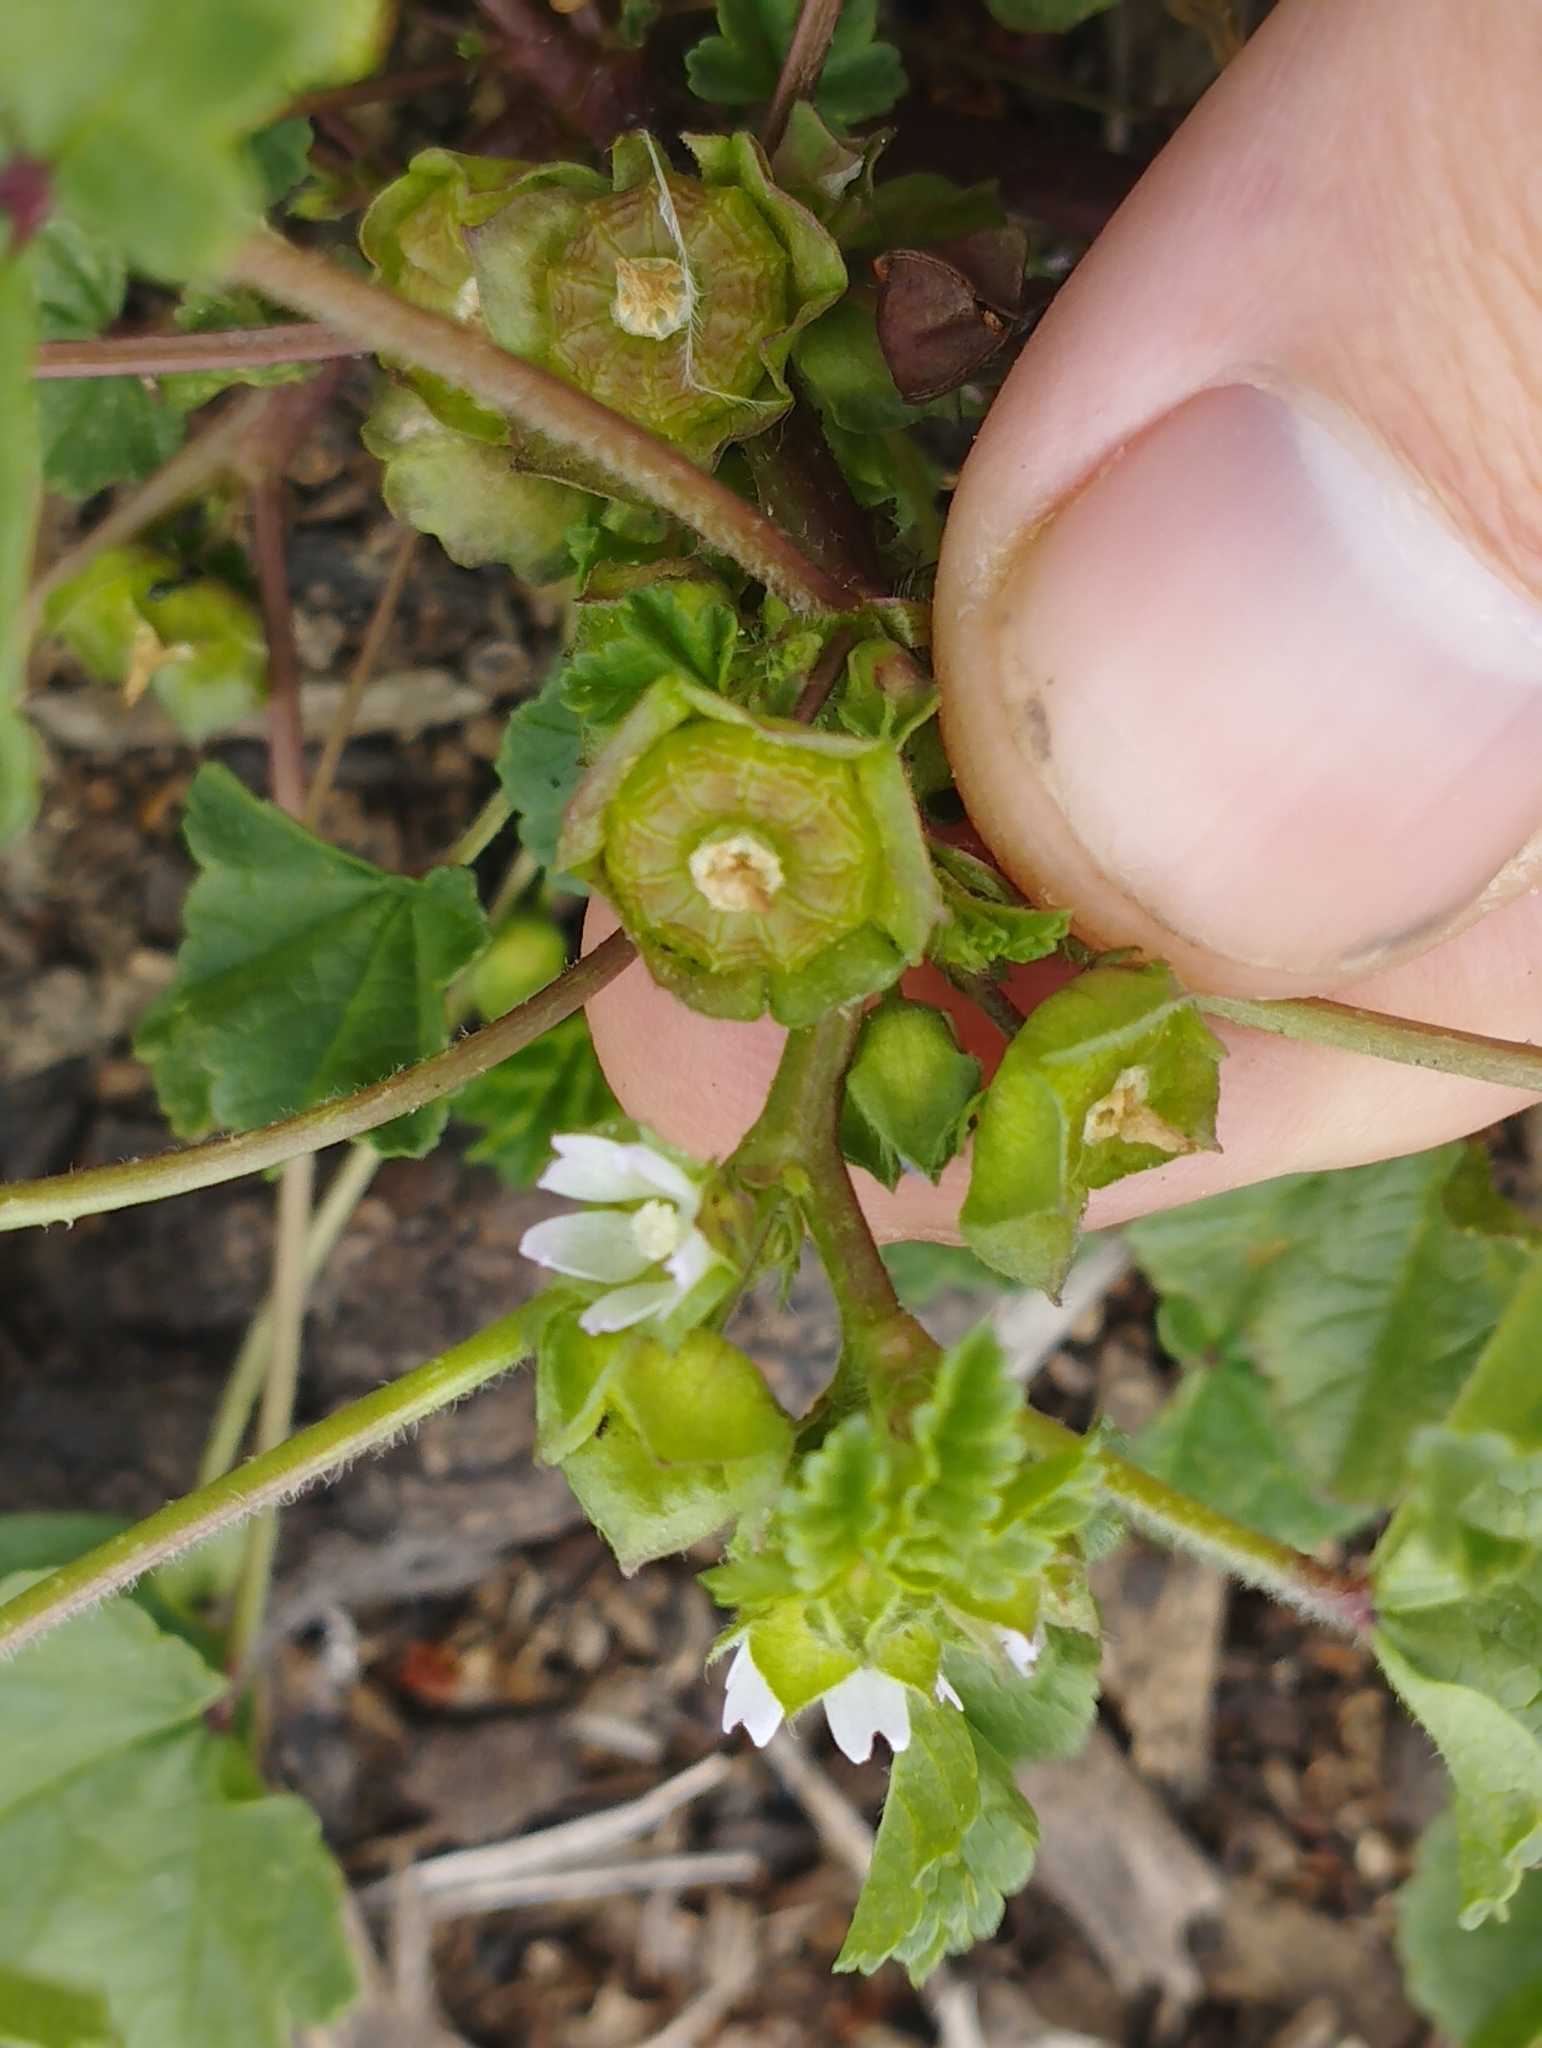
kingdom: Plantae
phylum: Tracheophyta
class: Magnoliopsida
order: Malvales
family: Malvaceae
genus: Malva
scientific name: Malva parviflora
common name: Least mallow
